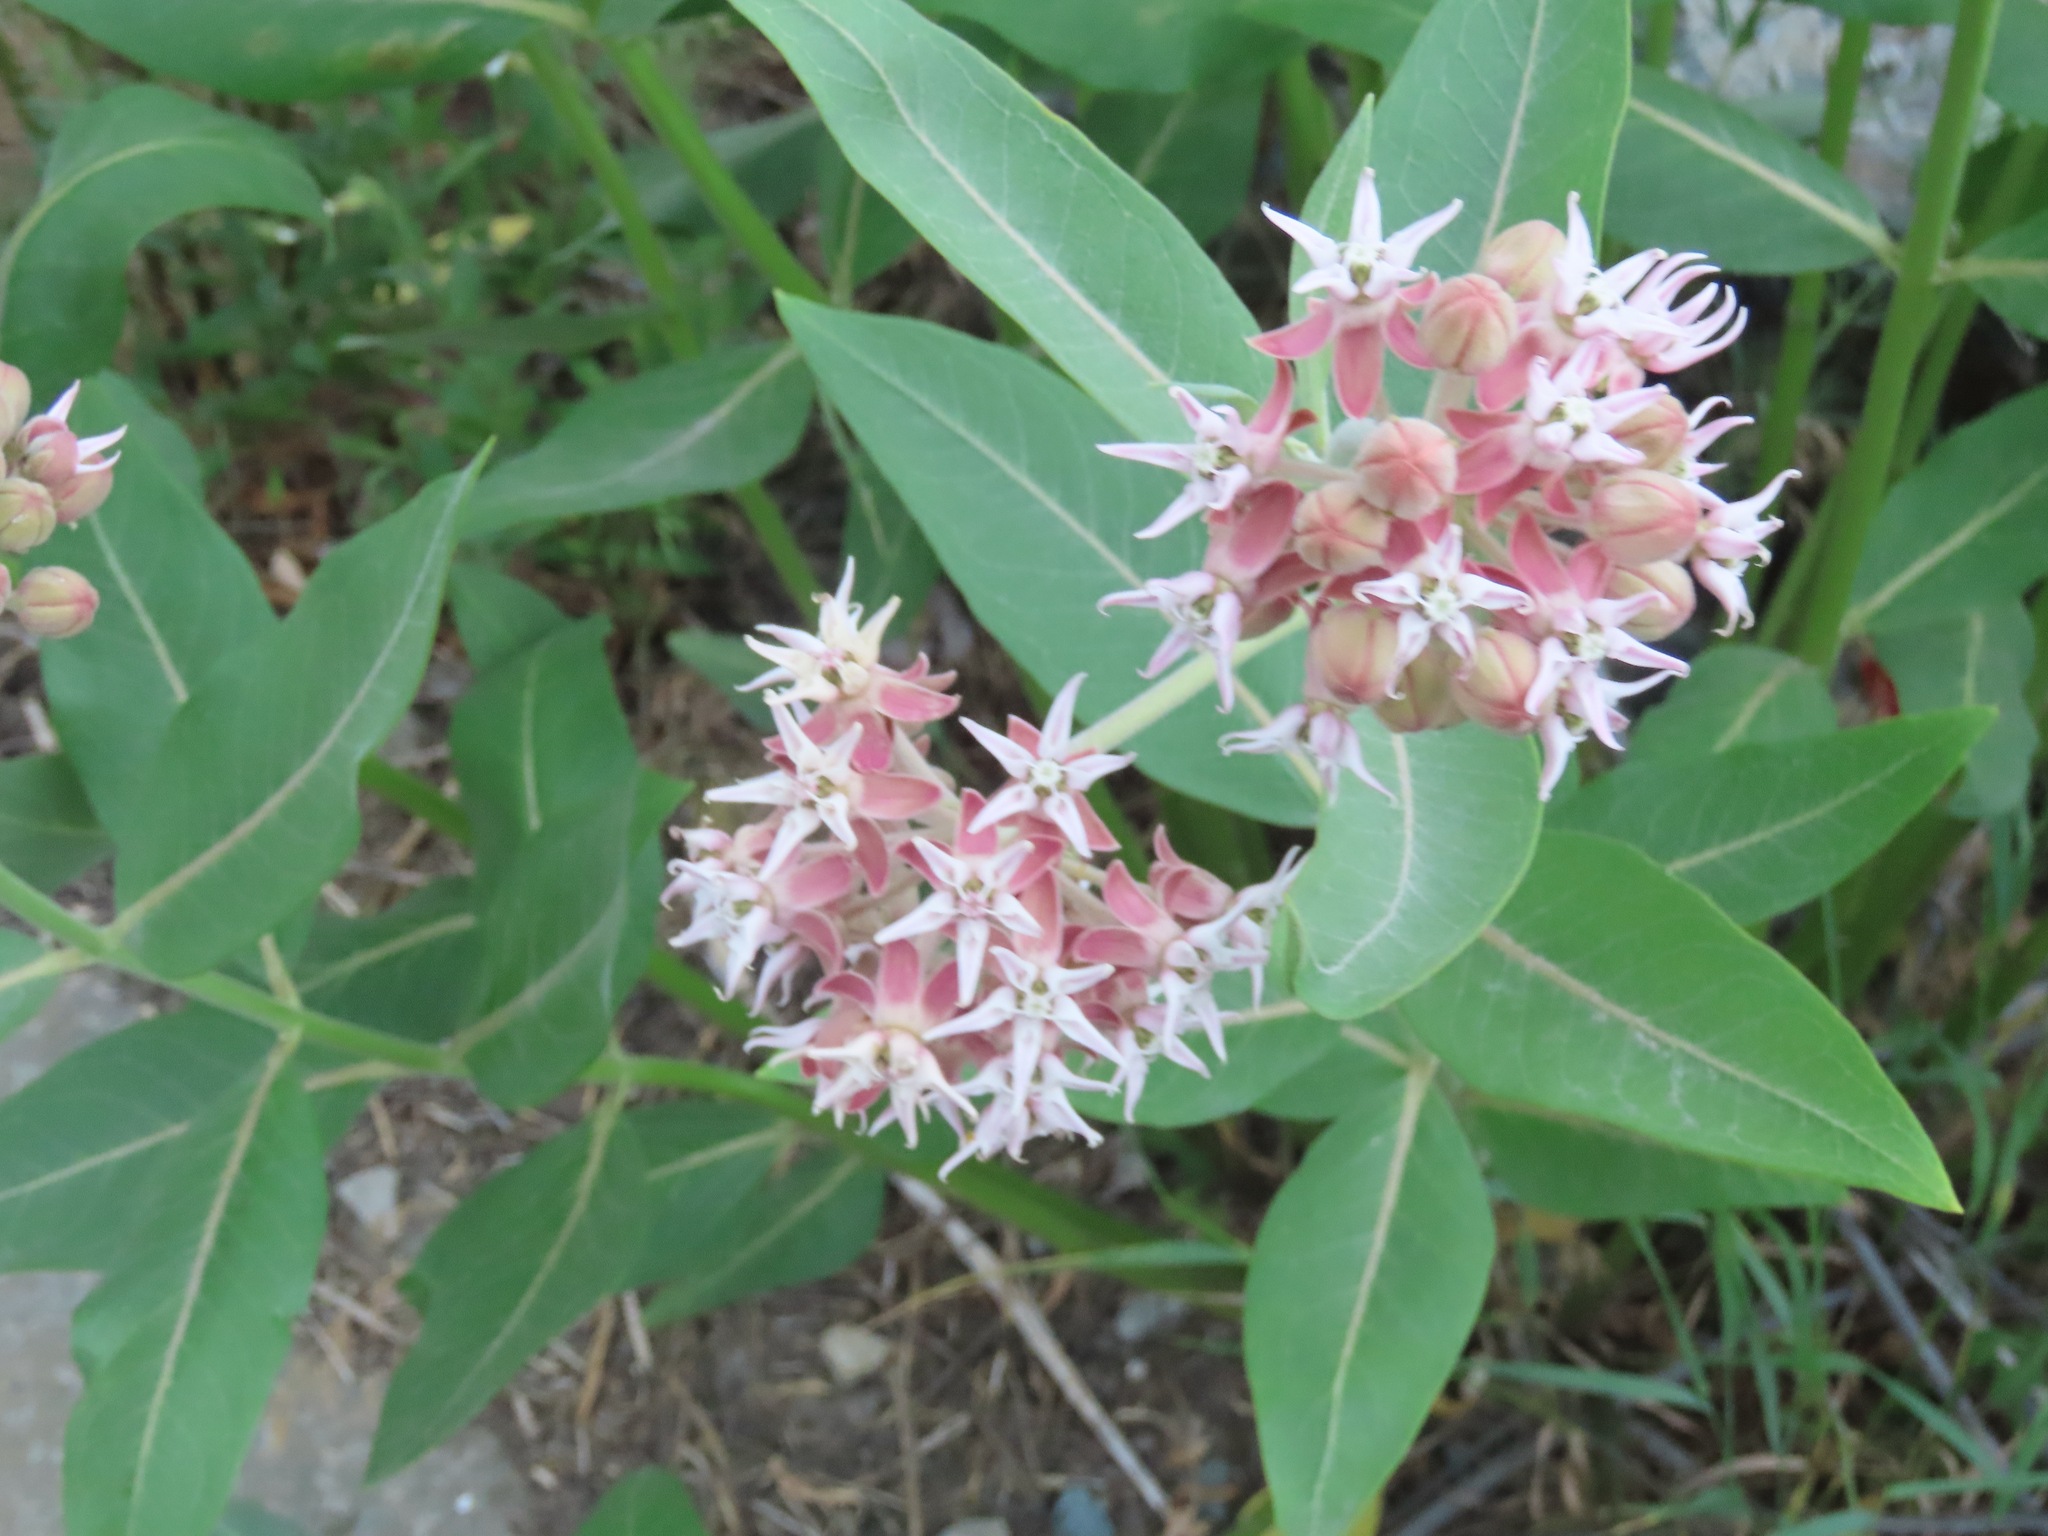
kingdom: Plantae
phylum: Tracheophyta
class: Magnoliopsida
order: Gentianales
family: Apocynaceae
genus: Asclepias
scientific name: Asclepias speciosa
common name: Showy milkweed
